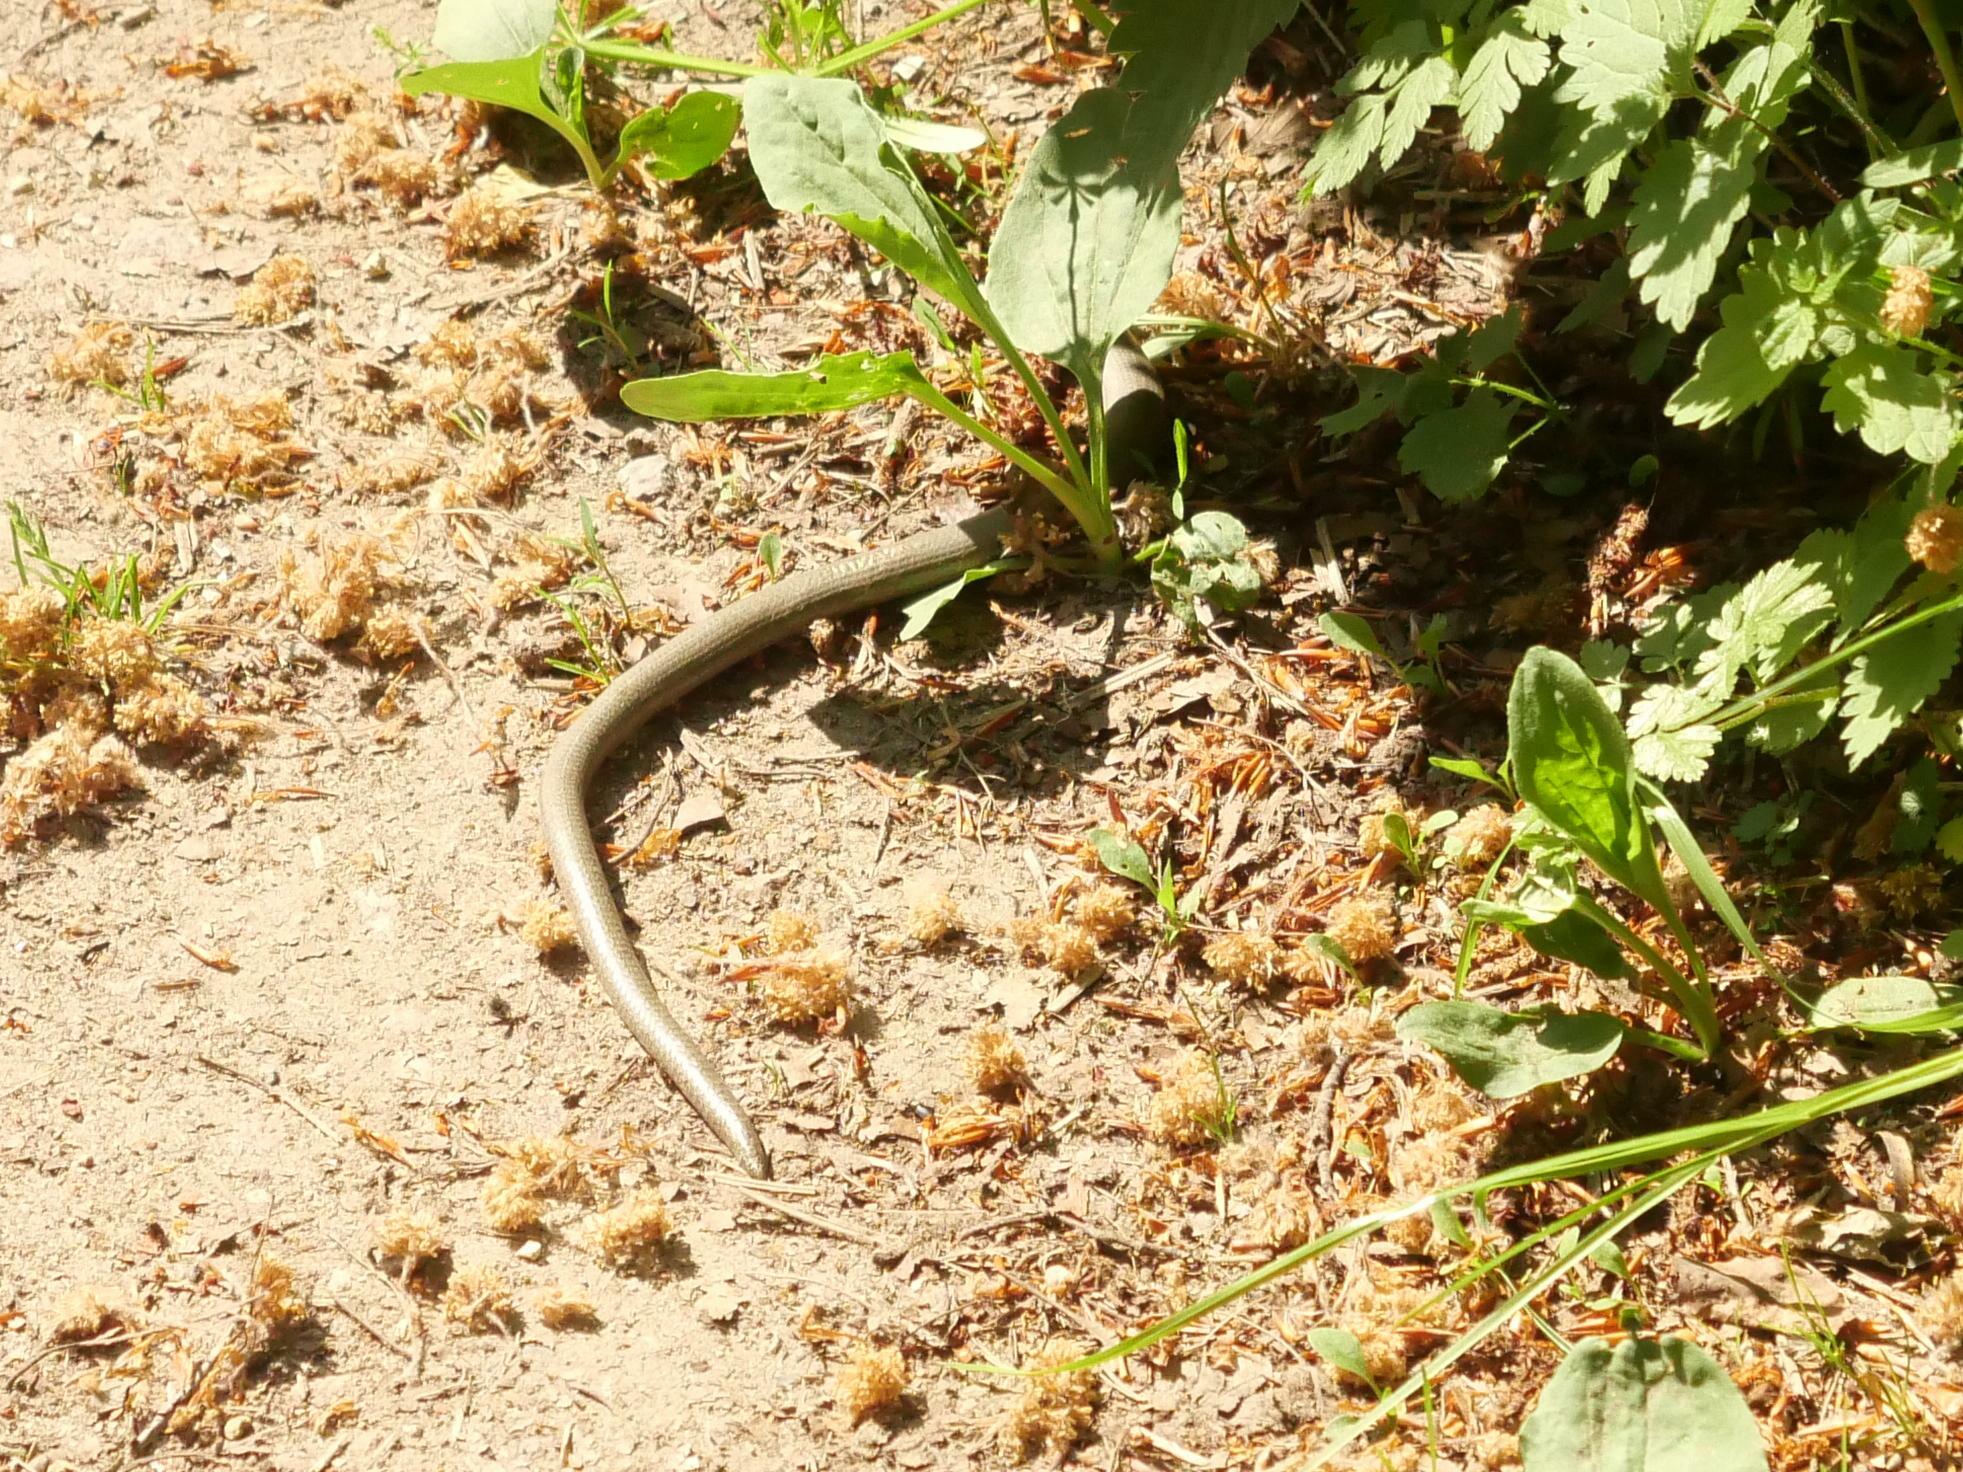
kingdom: Animalia
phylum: Chordata
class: Squamata
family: Anguidae
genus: Anguis
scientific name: Anguis fragilis
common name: Slow worm
